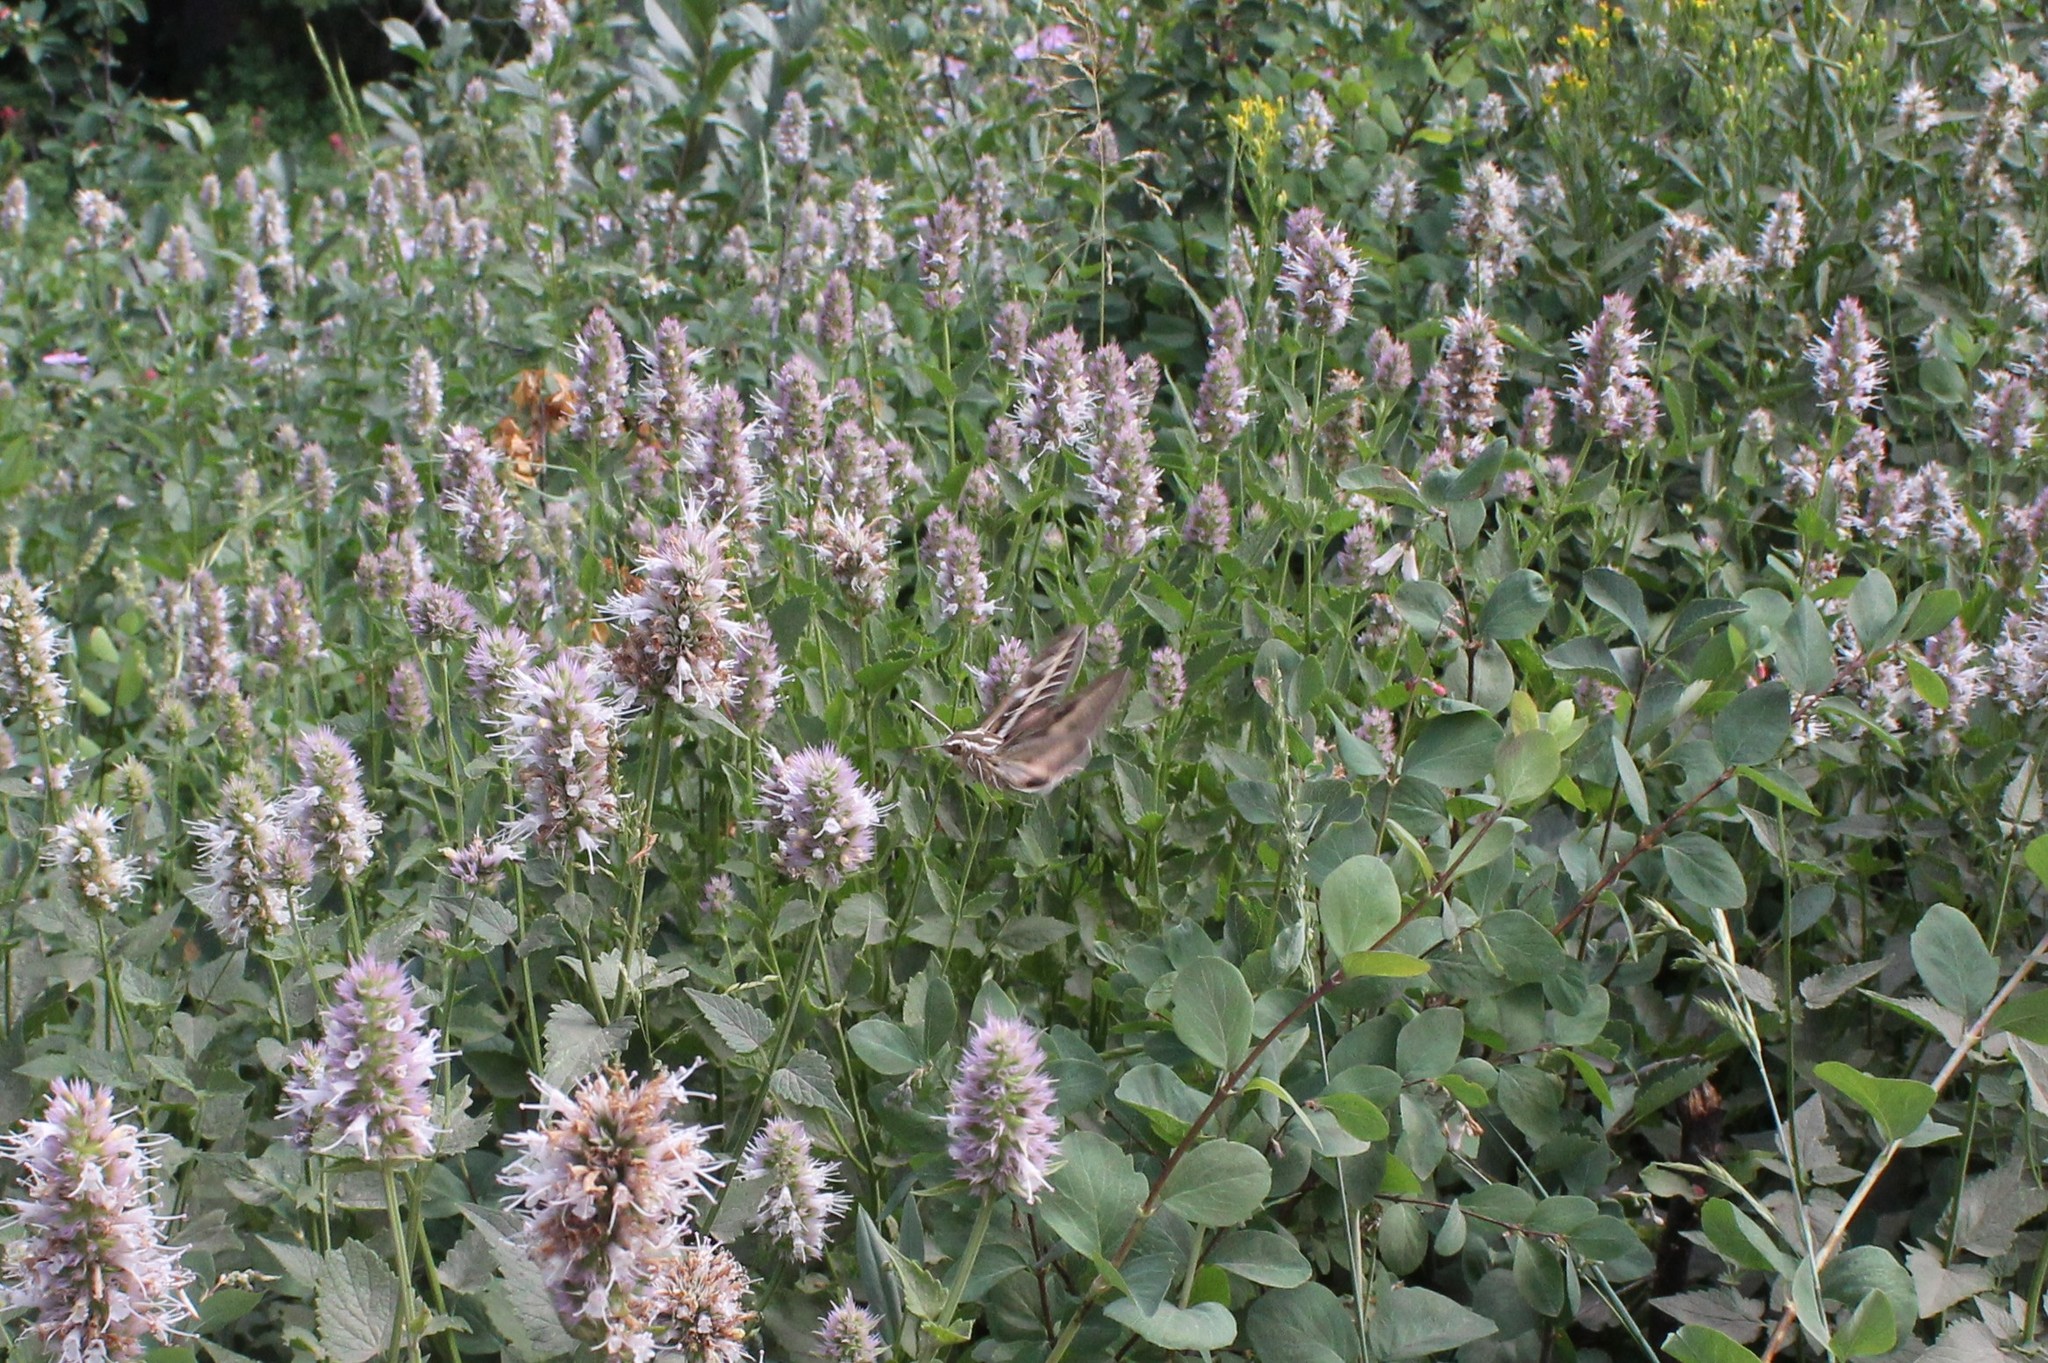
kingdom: Animalia
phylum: Arthropoda
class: Insecta
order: Lepidoptera
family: Sphingidae
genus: Hyles
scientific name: Hyles lineata
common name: White-lined sphinx
